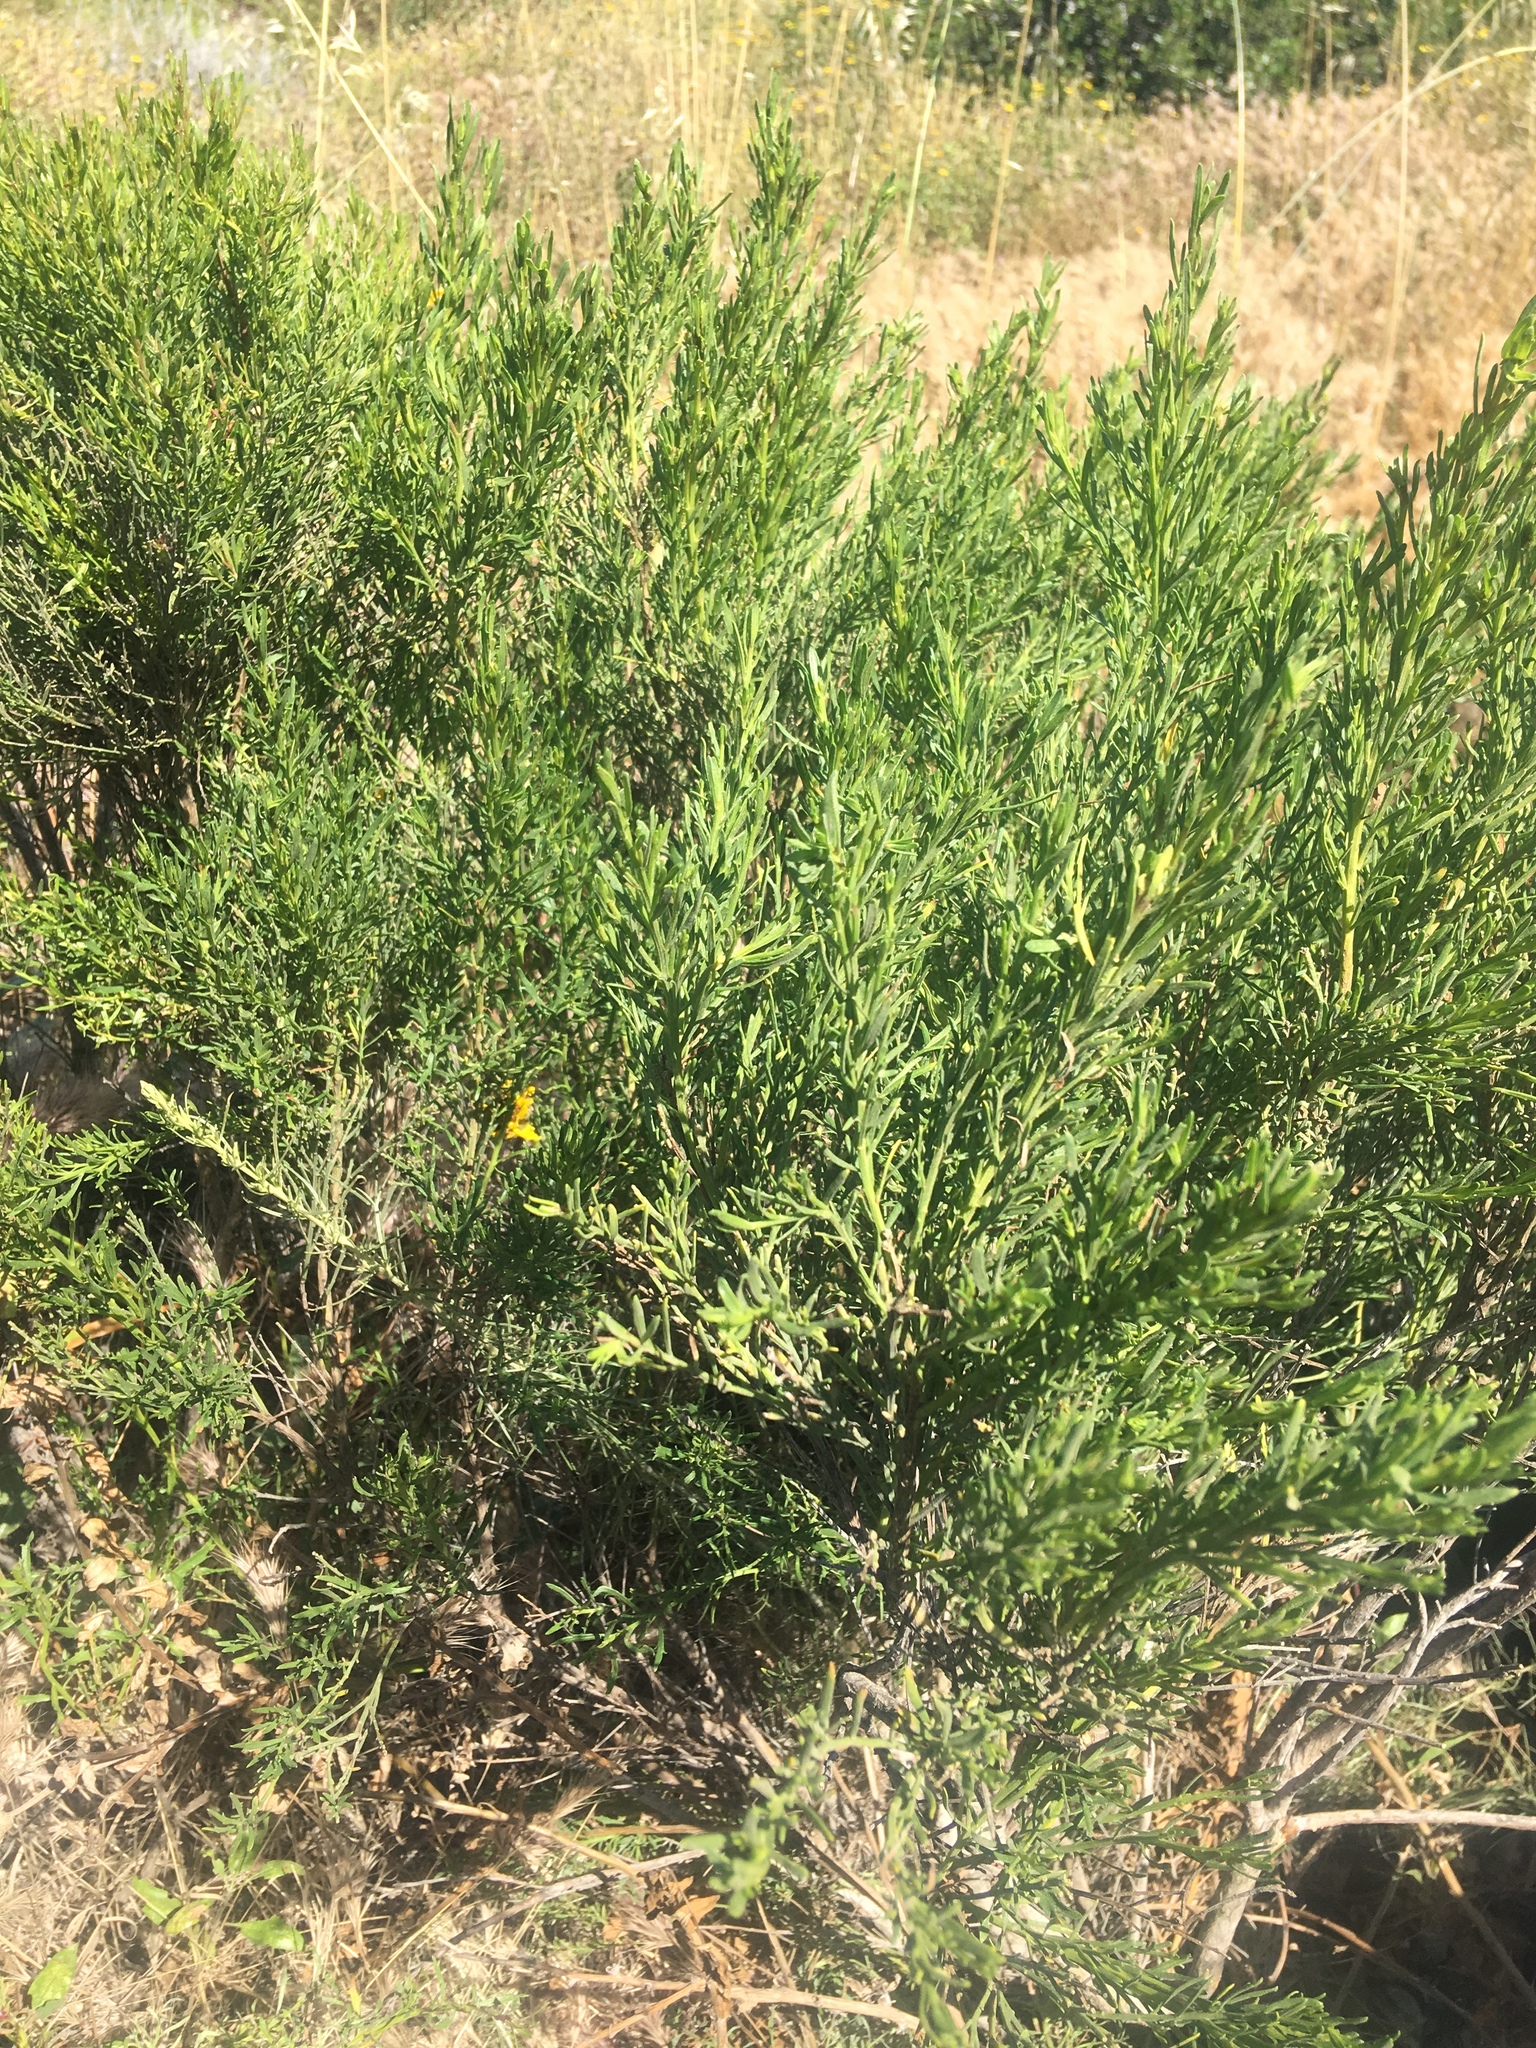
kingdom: Plantae
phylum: Tracheophyta
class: Magnoliopsida
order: Asterales
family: Asteraceae
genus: Baccharis
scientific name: Baccharis sarothroides
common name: Desert-broom
